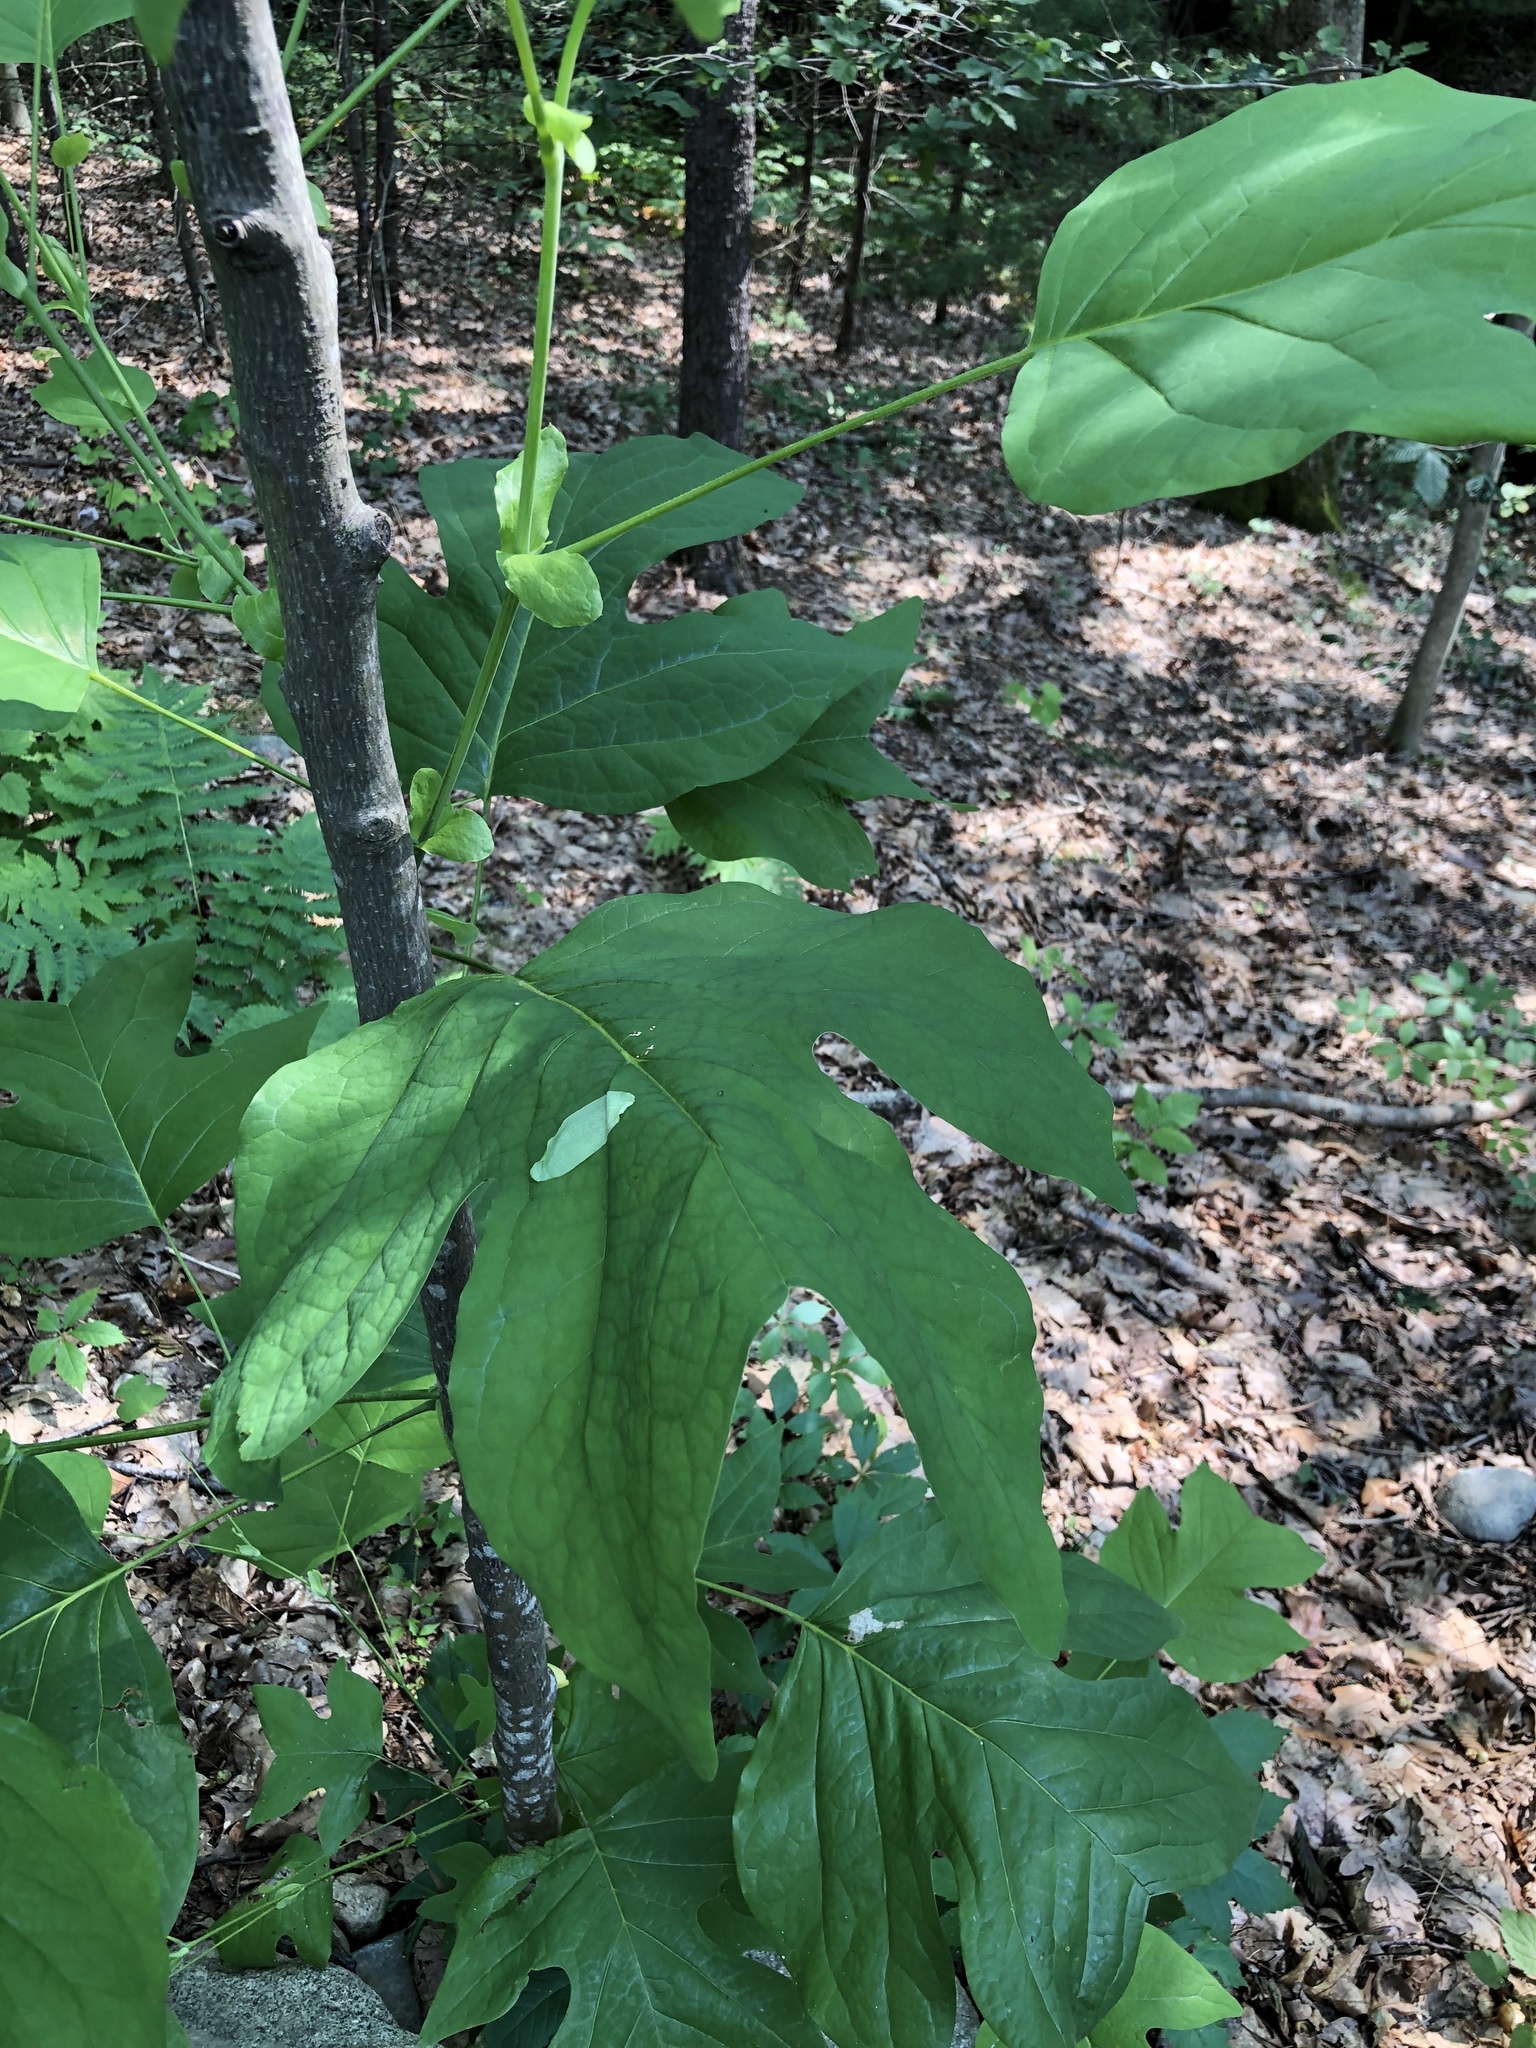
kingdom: Plantae
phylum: Tracheophyta
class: Magnoliopsida
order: Magnoliales
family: Magnoliaceae
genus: Liriodendron
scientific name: Liriodendron tulipifera
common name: Tulip tree
